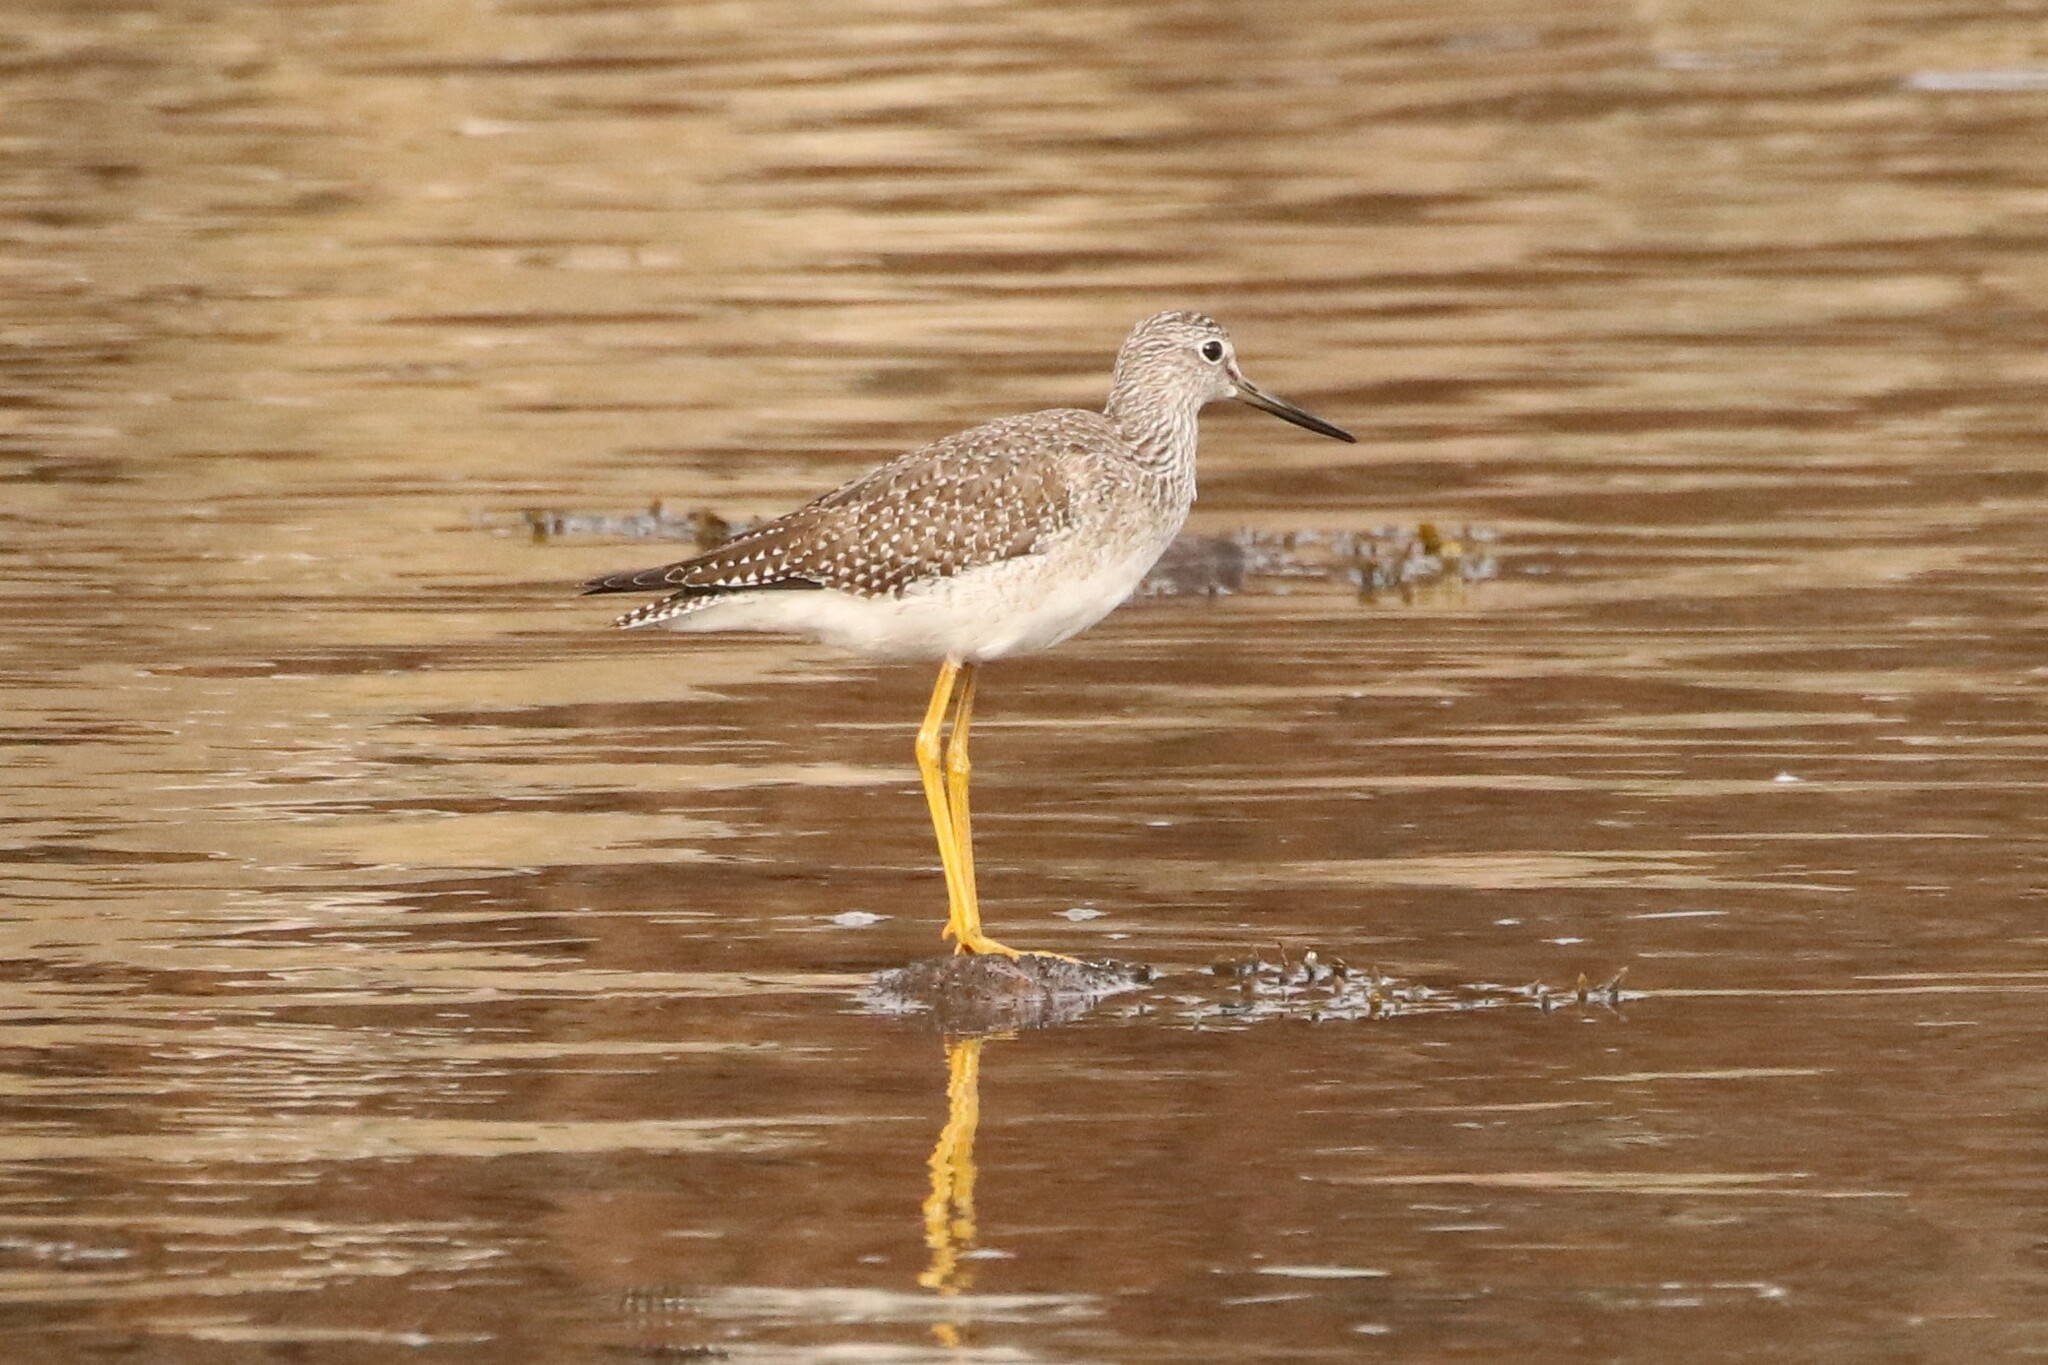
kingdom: Animalia
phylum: Chordata
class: Aves
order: Charadriiformes
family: Scolopacidae
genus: Tringa
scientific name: Tringa melanoleuca
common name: Greater yellowlegs
